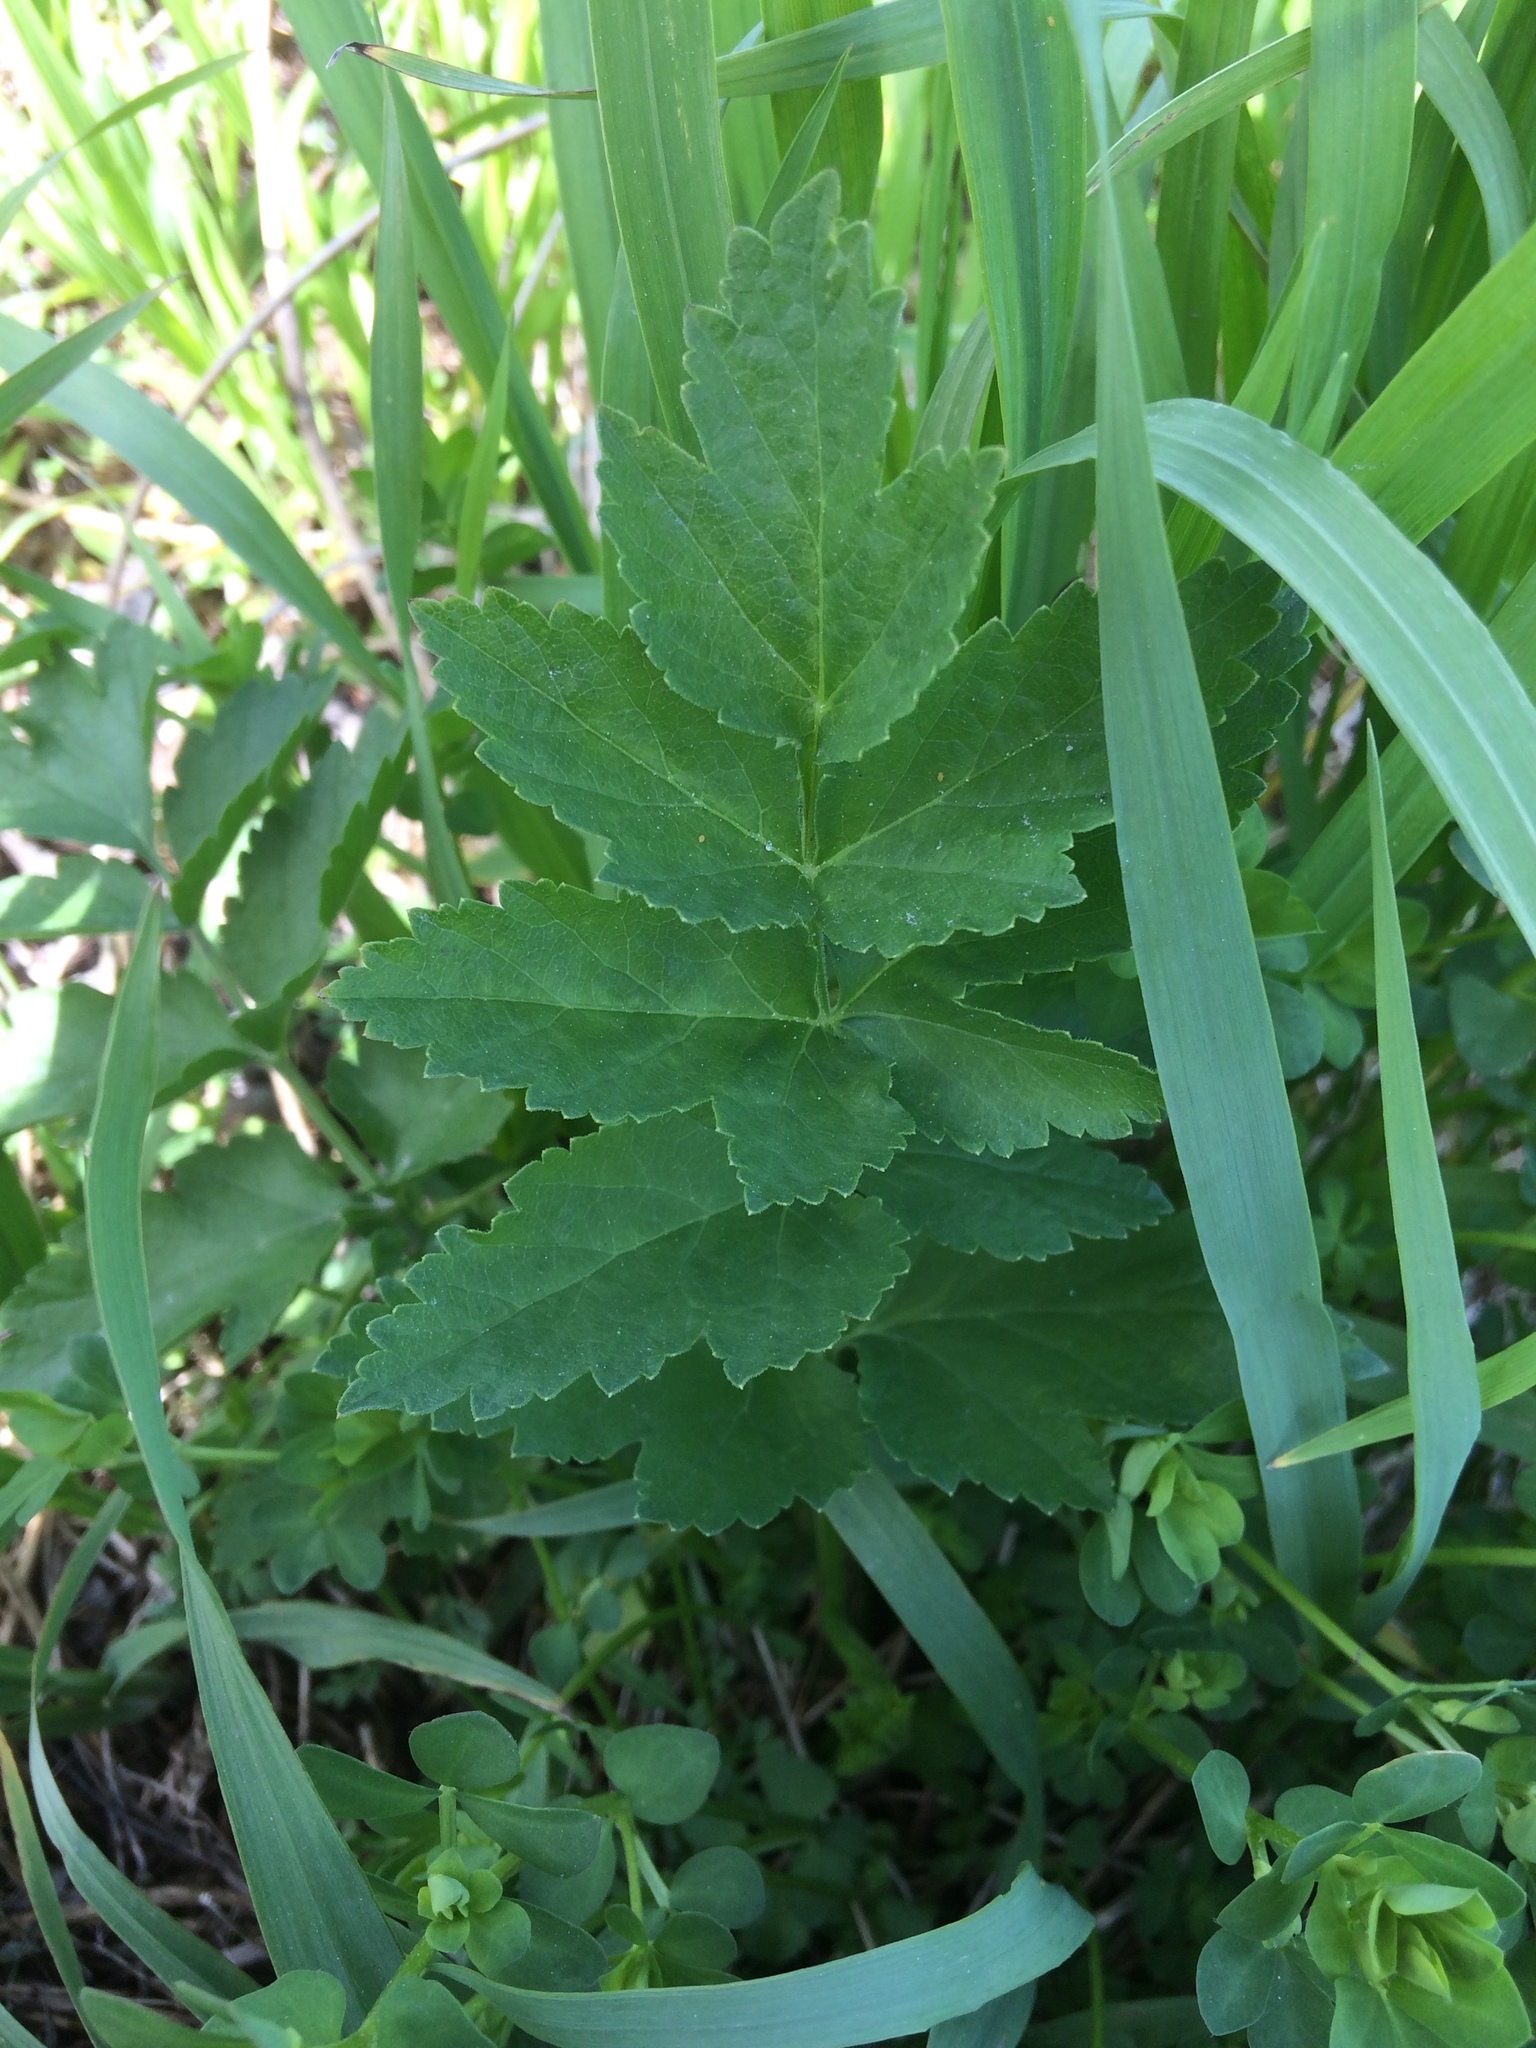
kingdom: Plantae
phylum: Tracheophyta
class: Magnoliopsida
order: Apiales
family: Apiaceae
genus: Pastinaca
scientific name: Pastinaca sativa
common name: Wild parsnip
